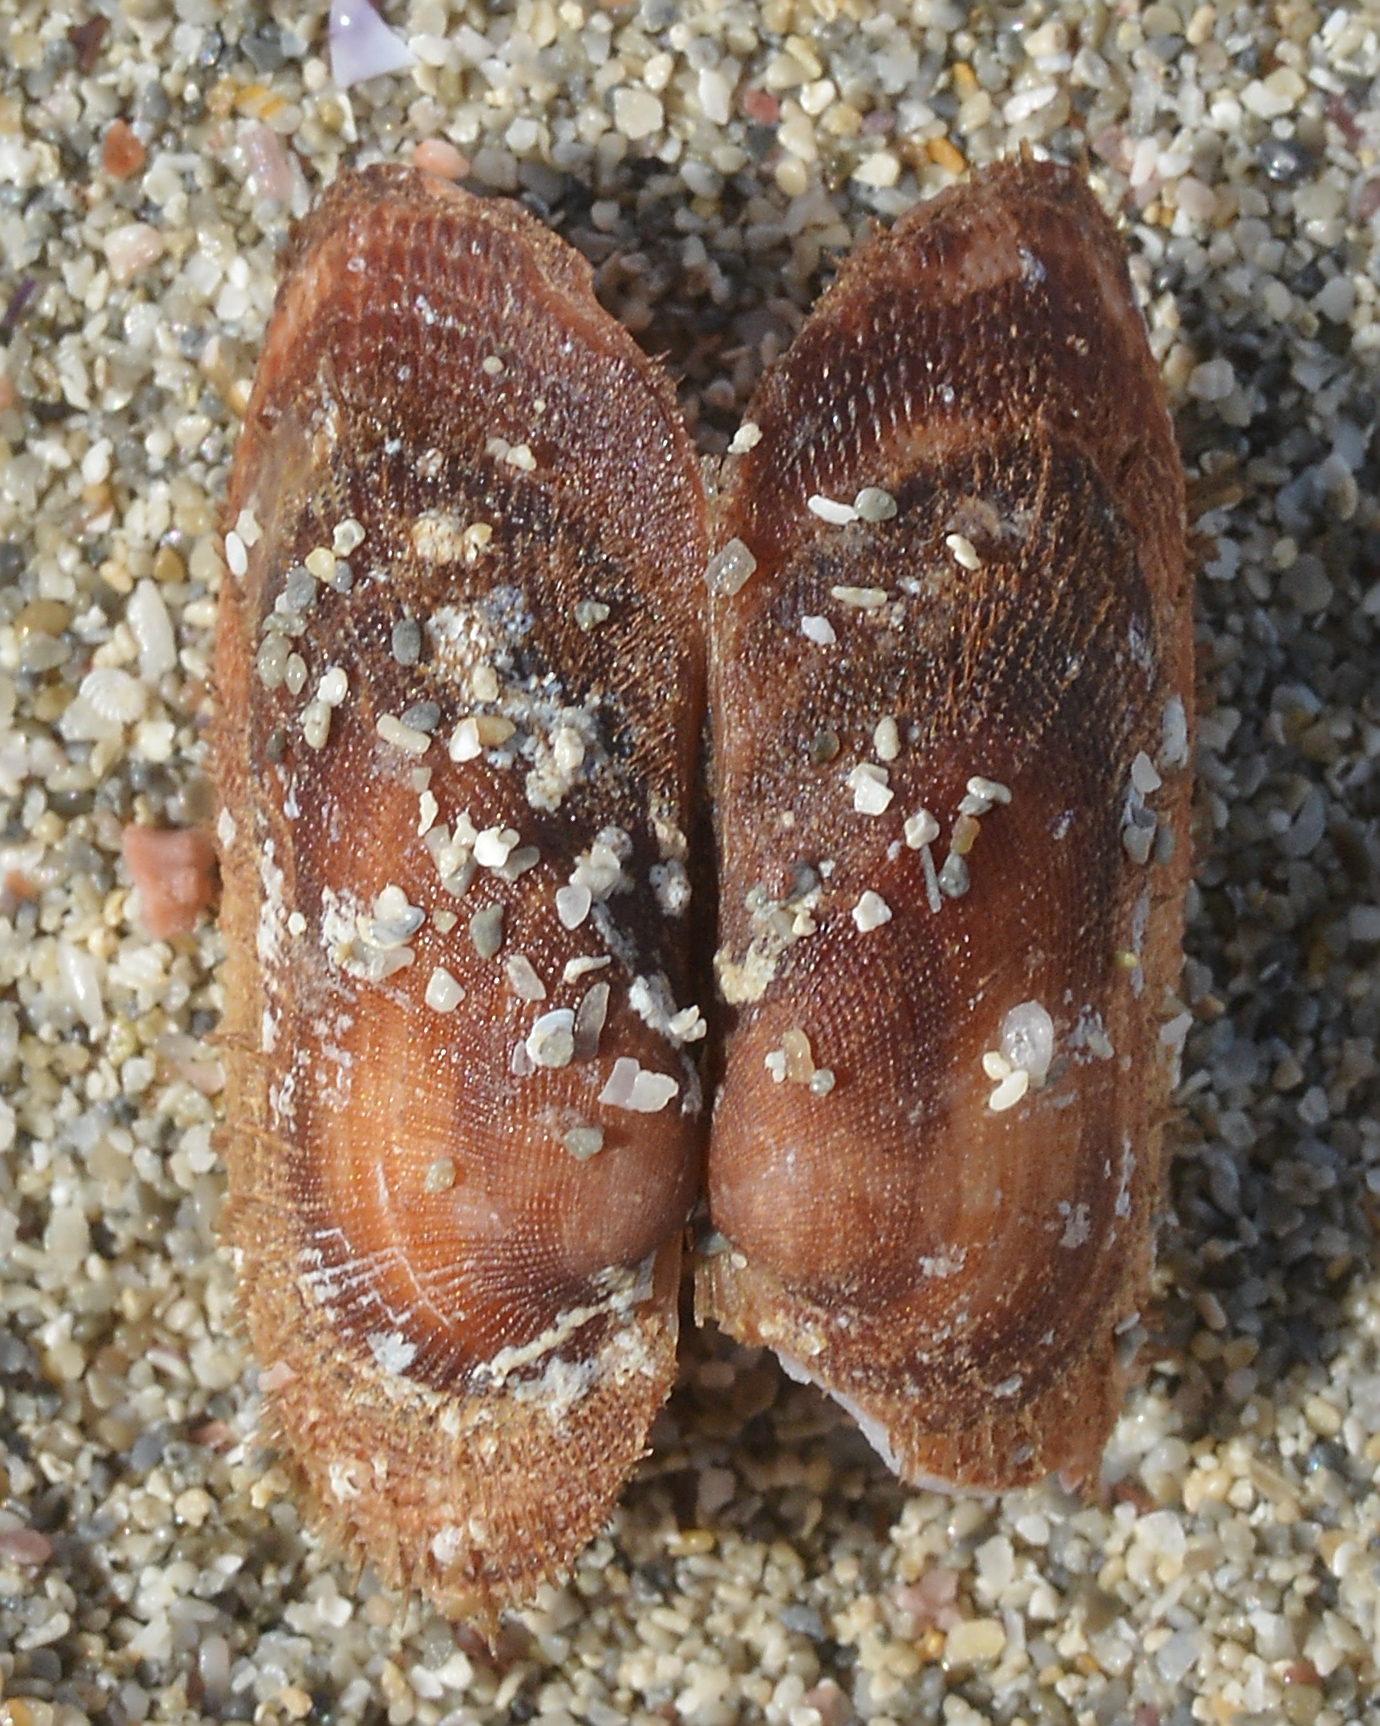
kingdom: Animalia
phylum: Mollusca
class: Bivalvia
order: Arcida
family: Arcidae
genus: Barbatia
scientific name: Barbatia barbata
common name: Bearded ark
